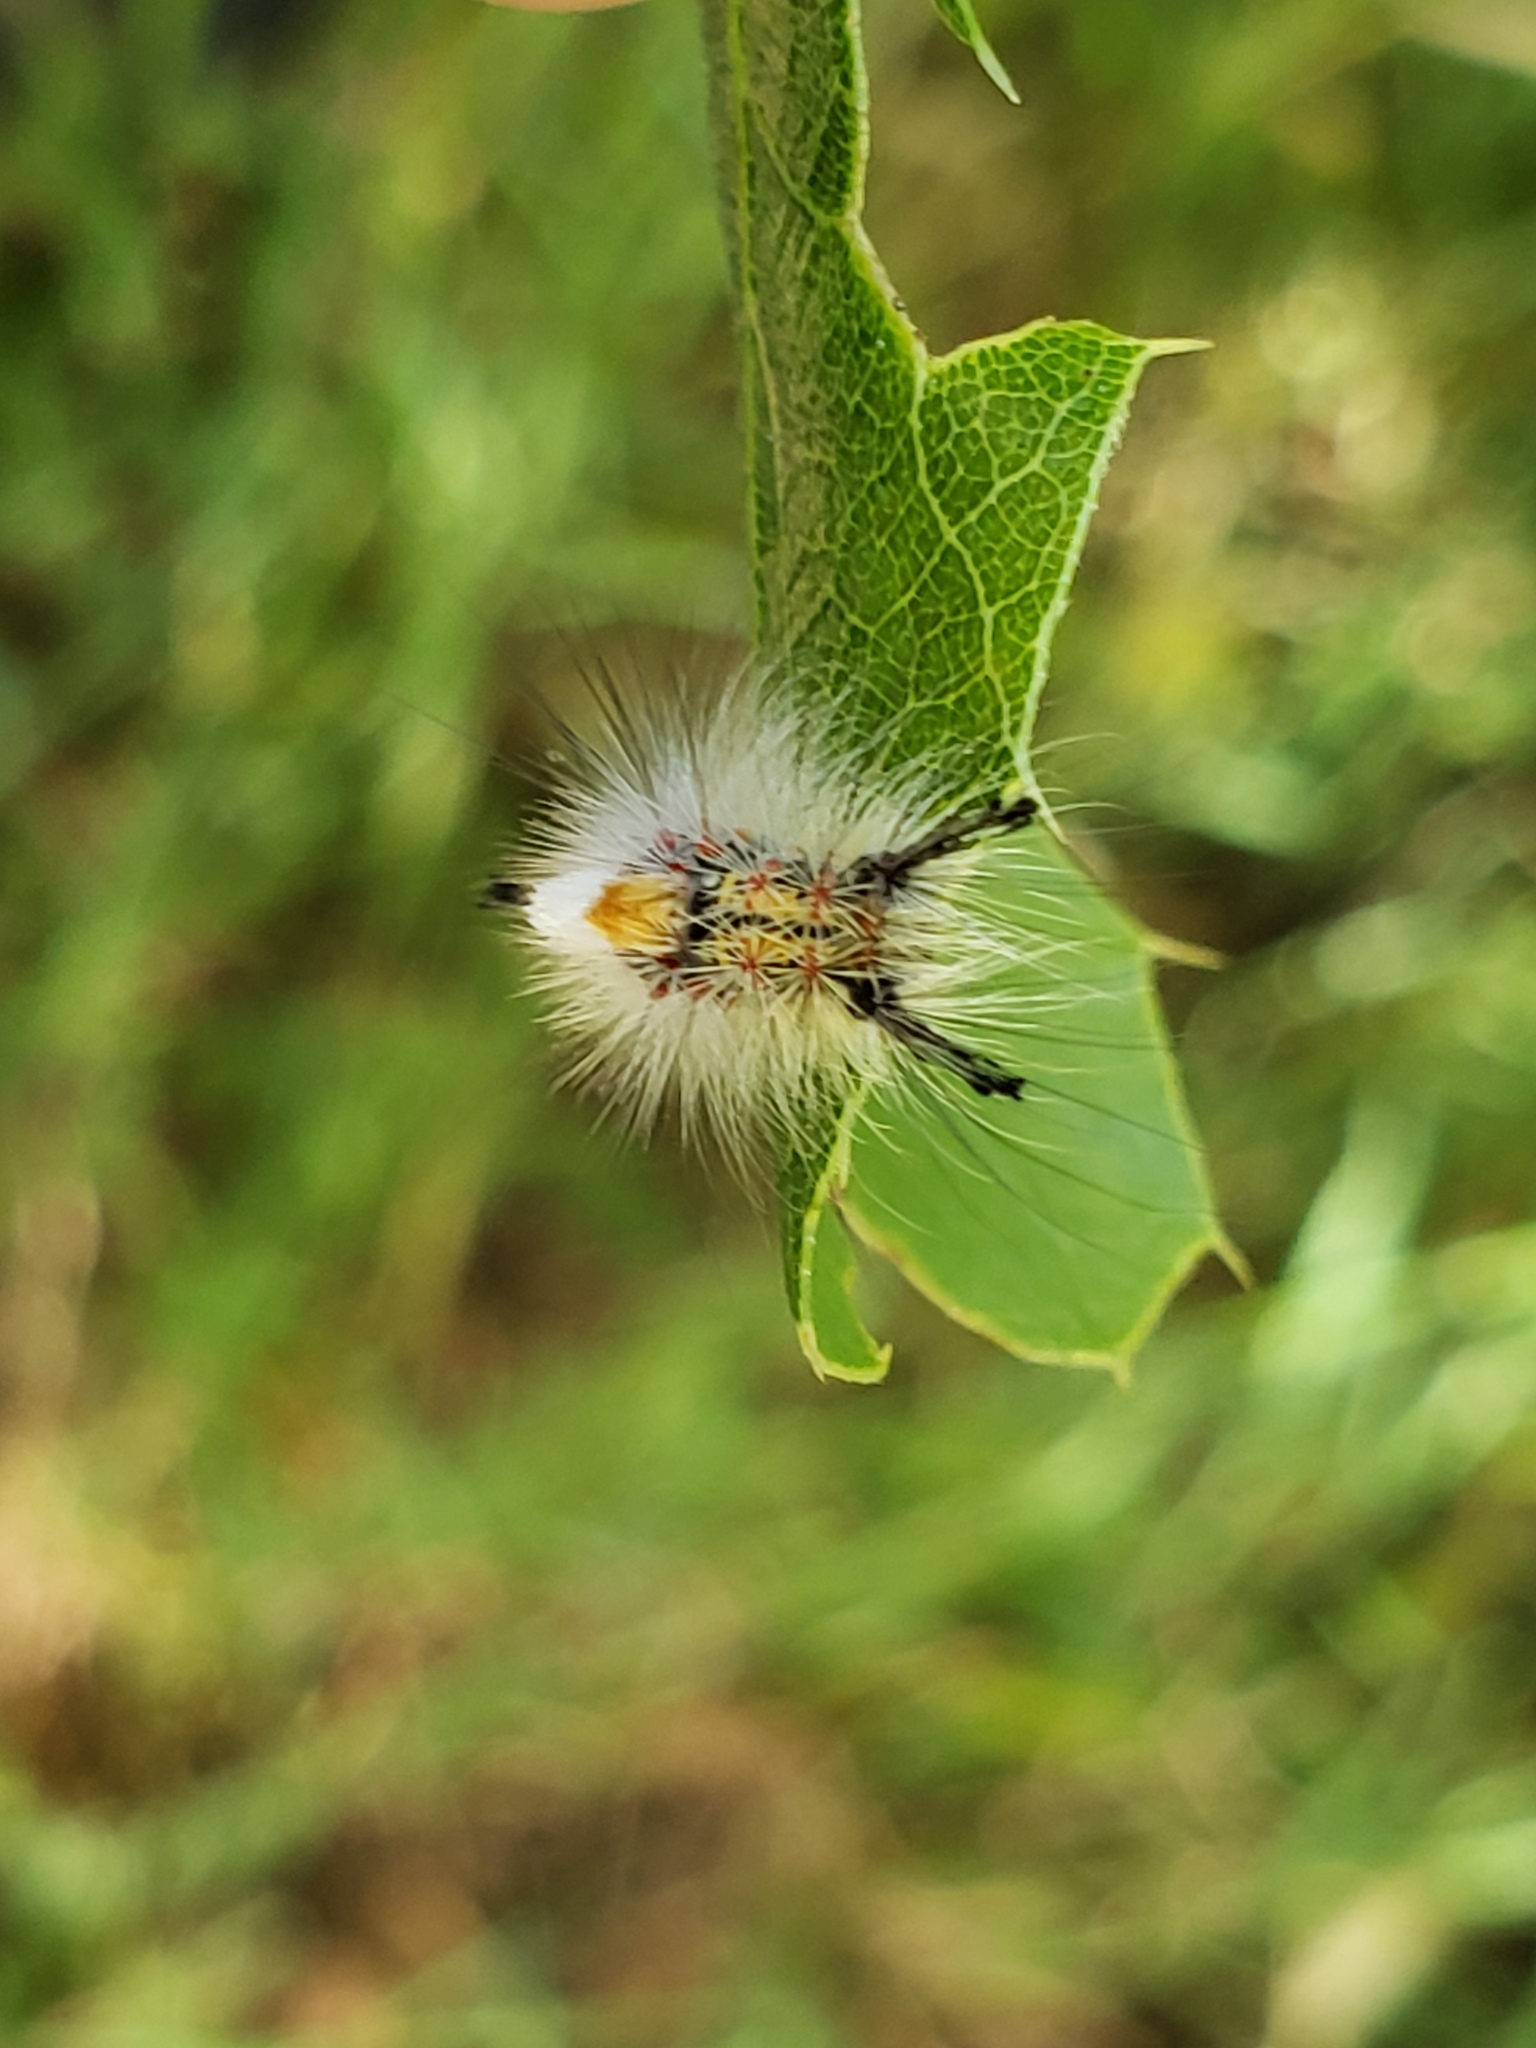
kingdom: Animalia
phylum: Arthropoda
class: Insecta
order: Lepidoptera
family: Erebidae
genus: Orgyia
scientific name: Orgyia vetusta
